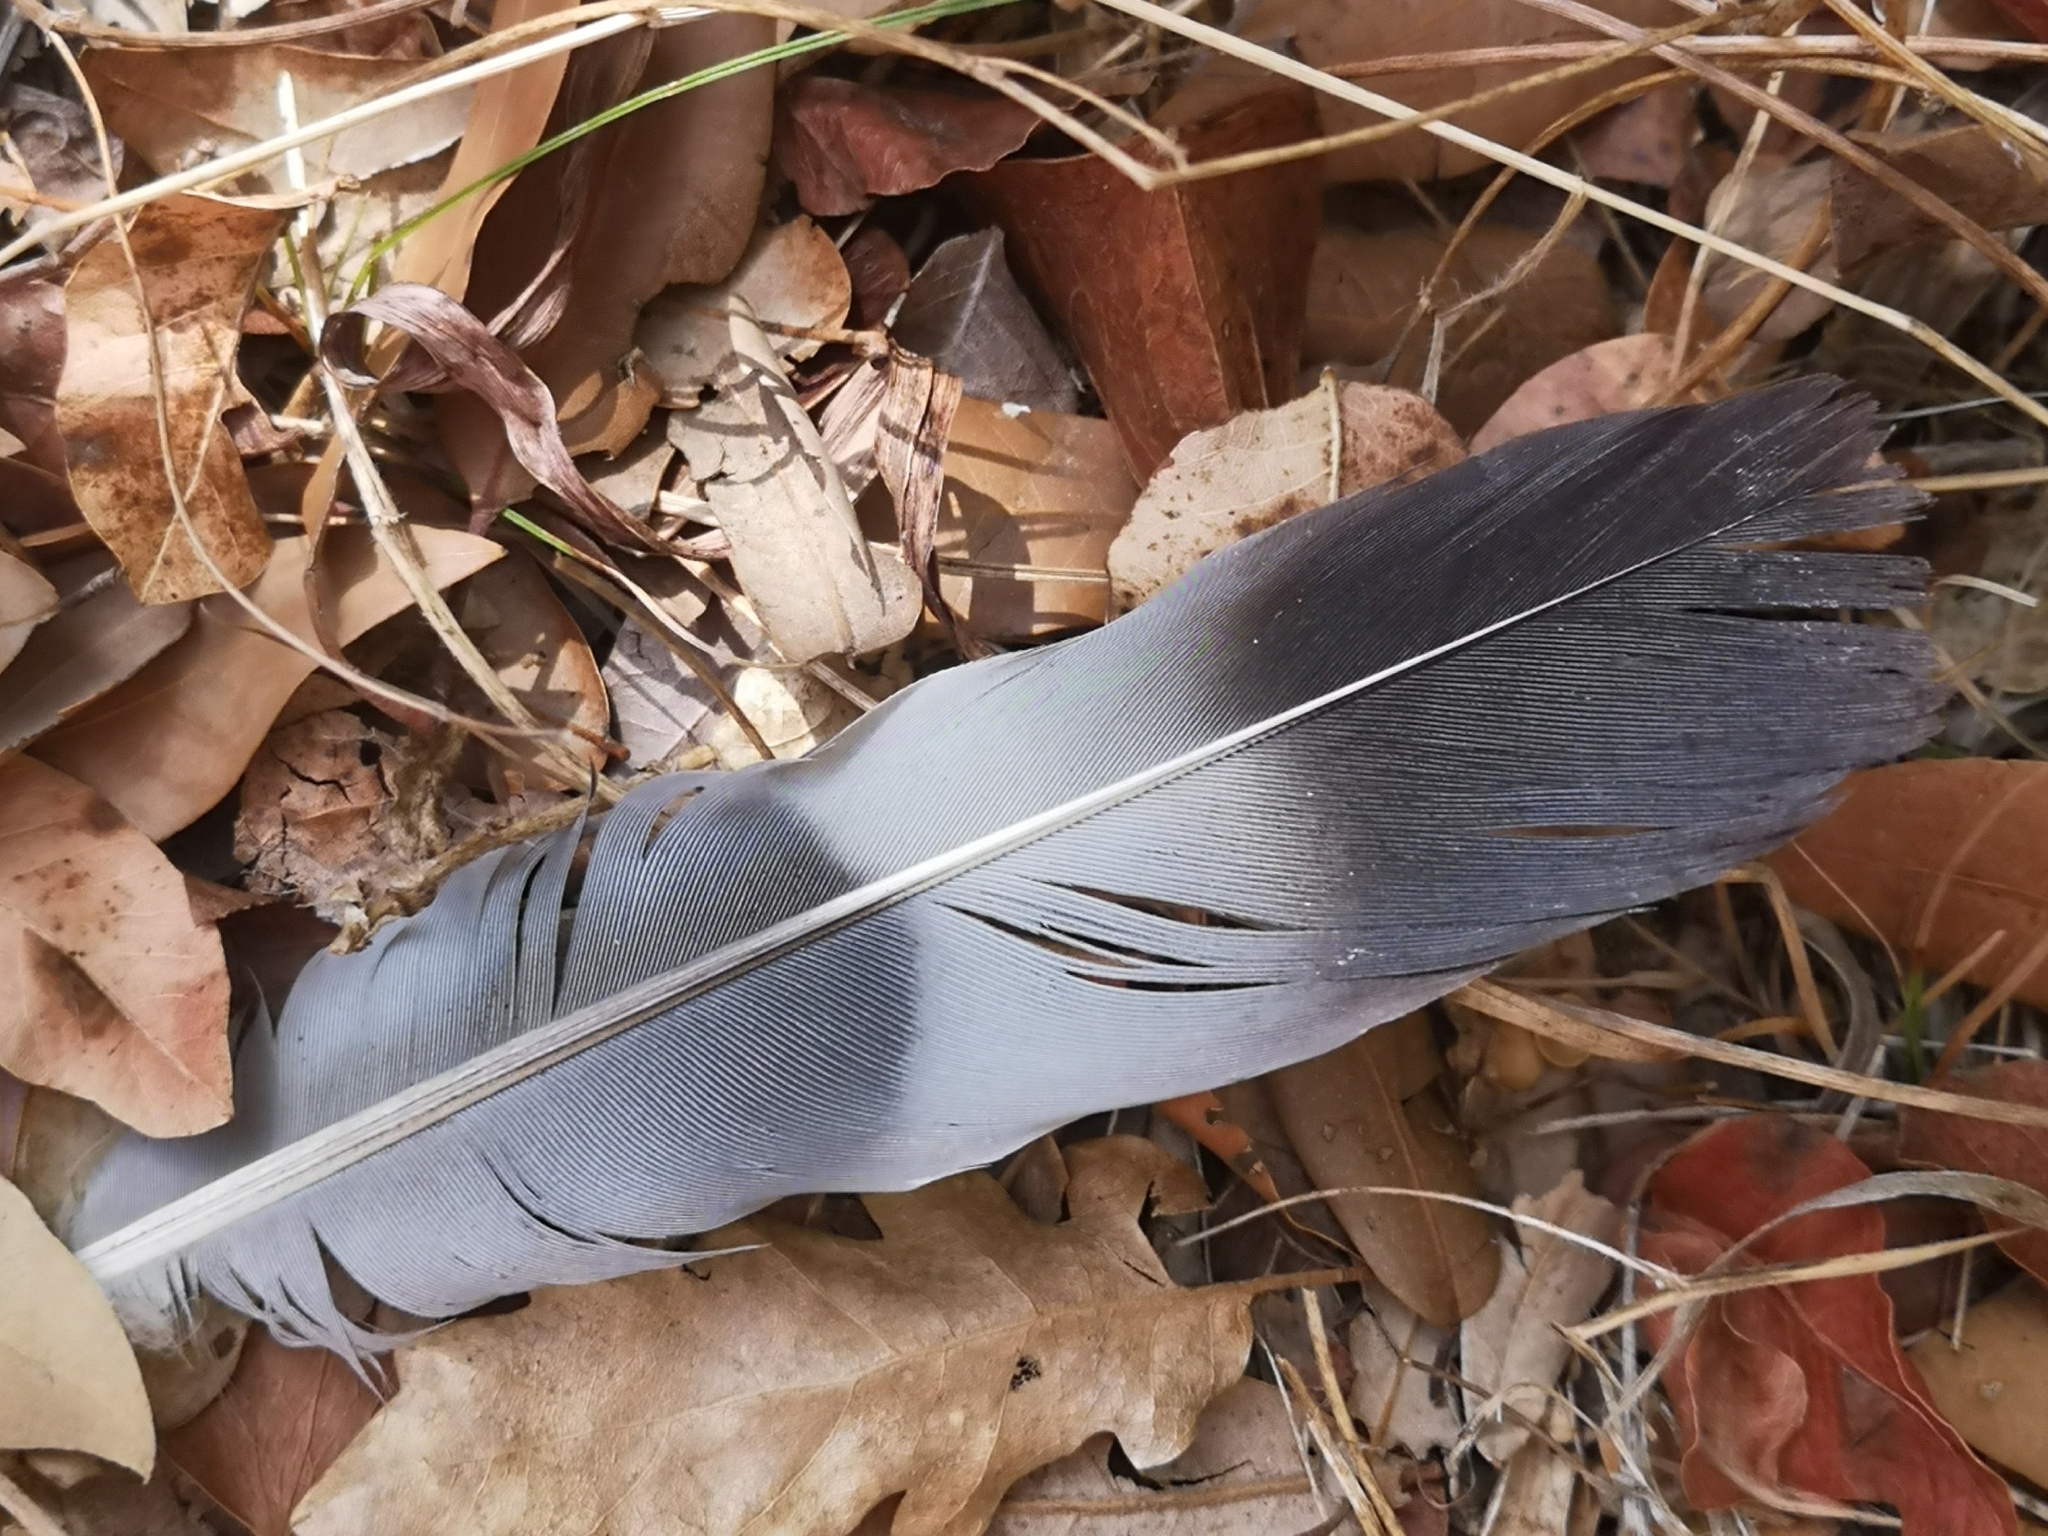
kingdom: Animalia
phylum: Chordata
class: Aves
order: Columbiformes
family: Columbidae
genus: Columba
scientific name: Columba palumbus
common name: Common wood pigeon
